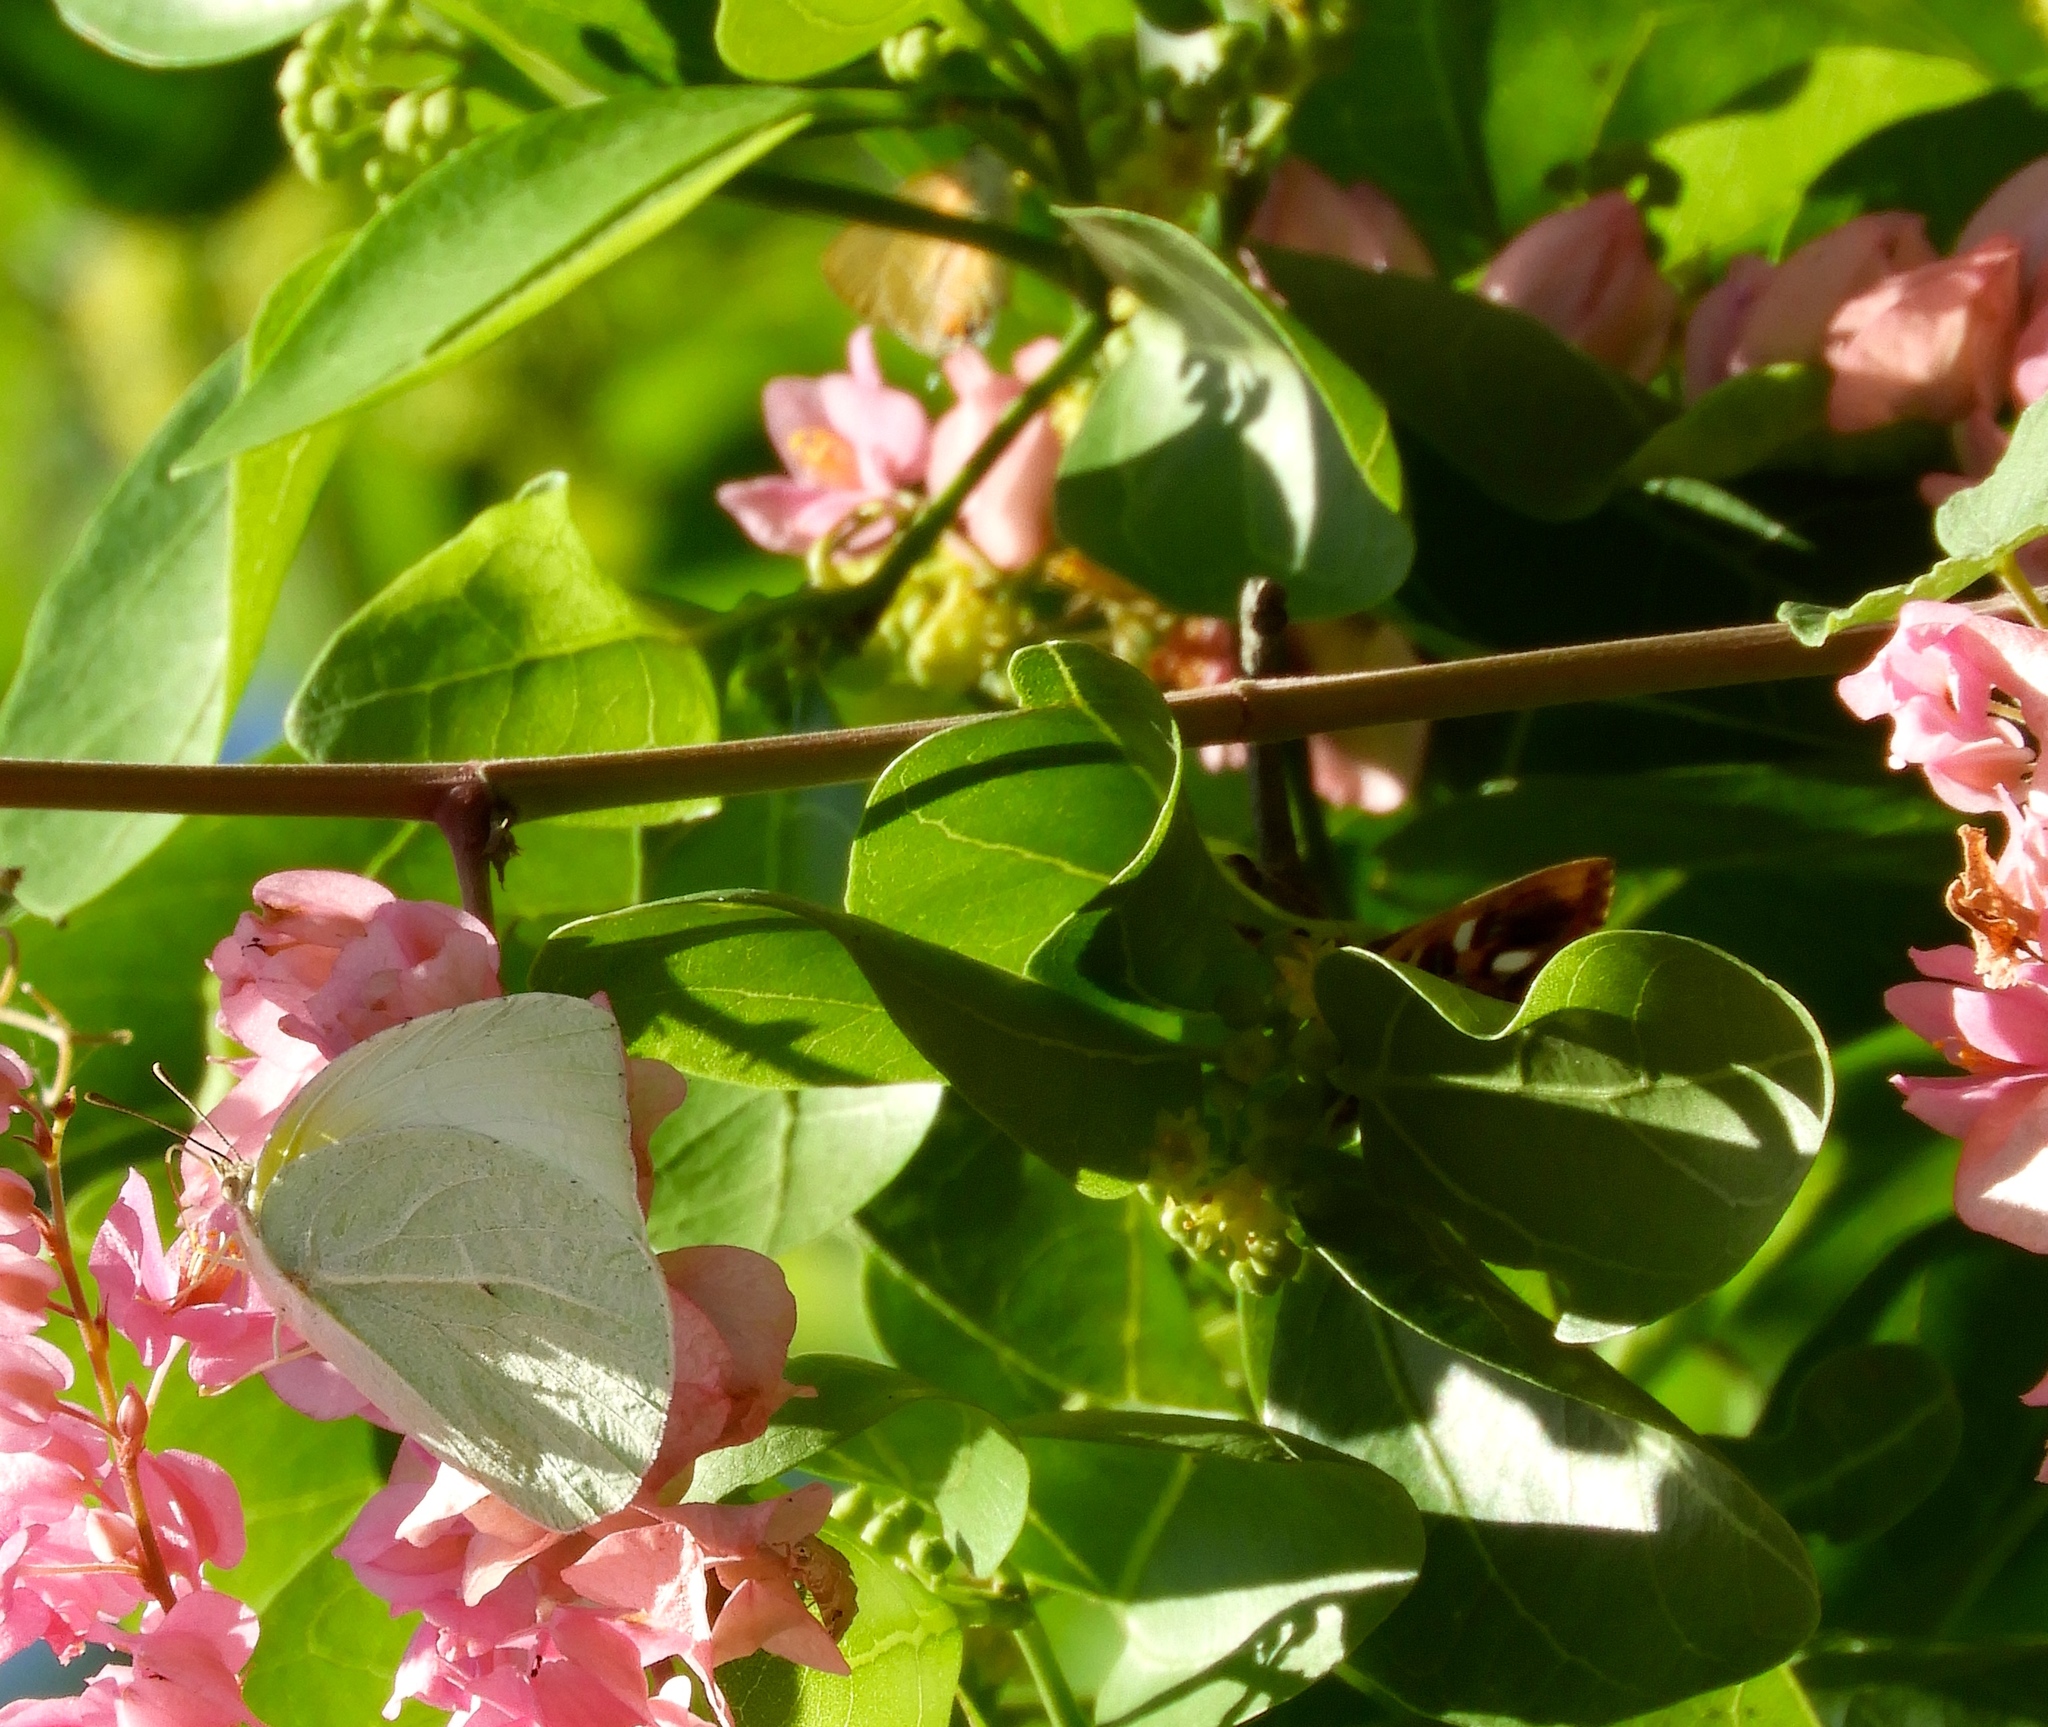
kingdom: Animalia
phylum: Arthropoda
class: Insecta
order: Lepidoptera
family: Pieridae
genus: Anteos
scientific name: Anteos clorinde
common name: White angled sulphur
